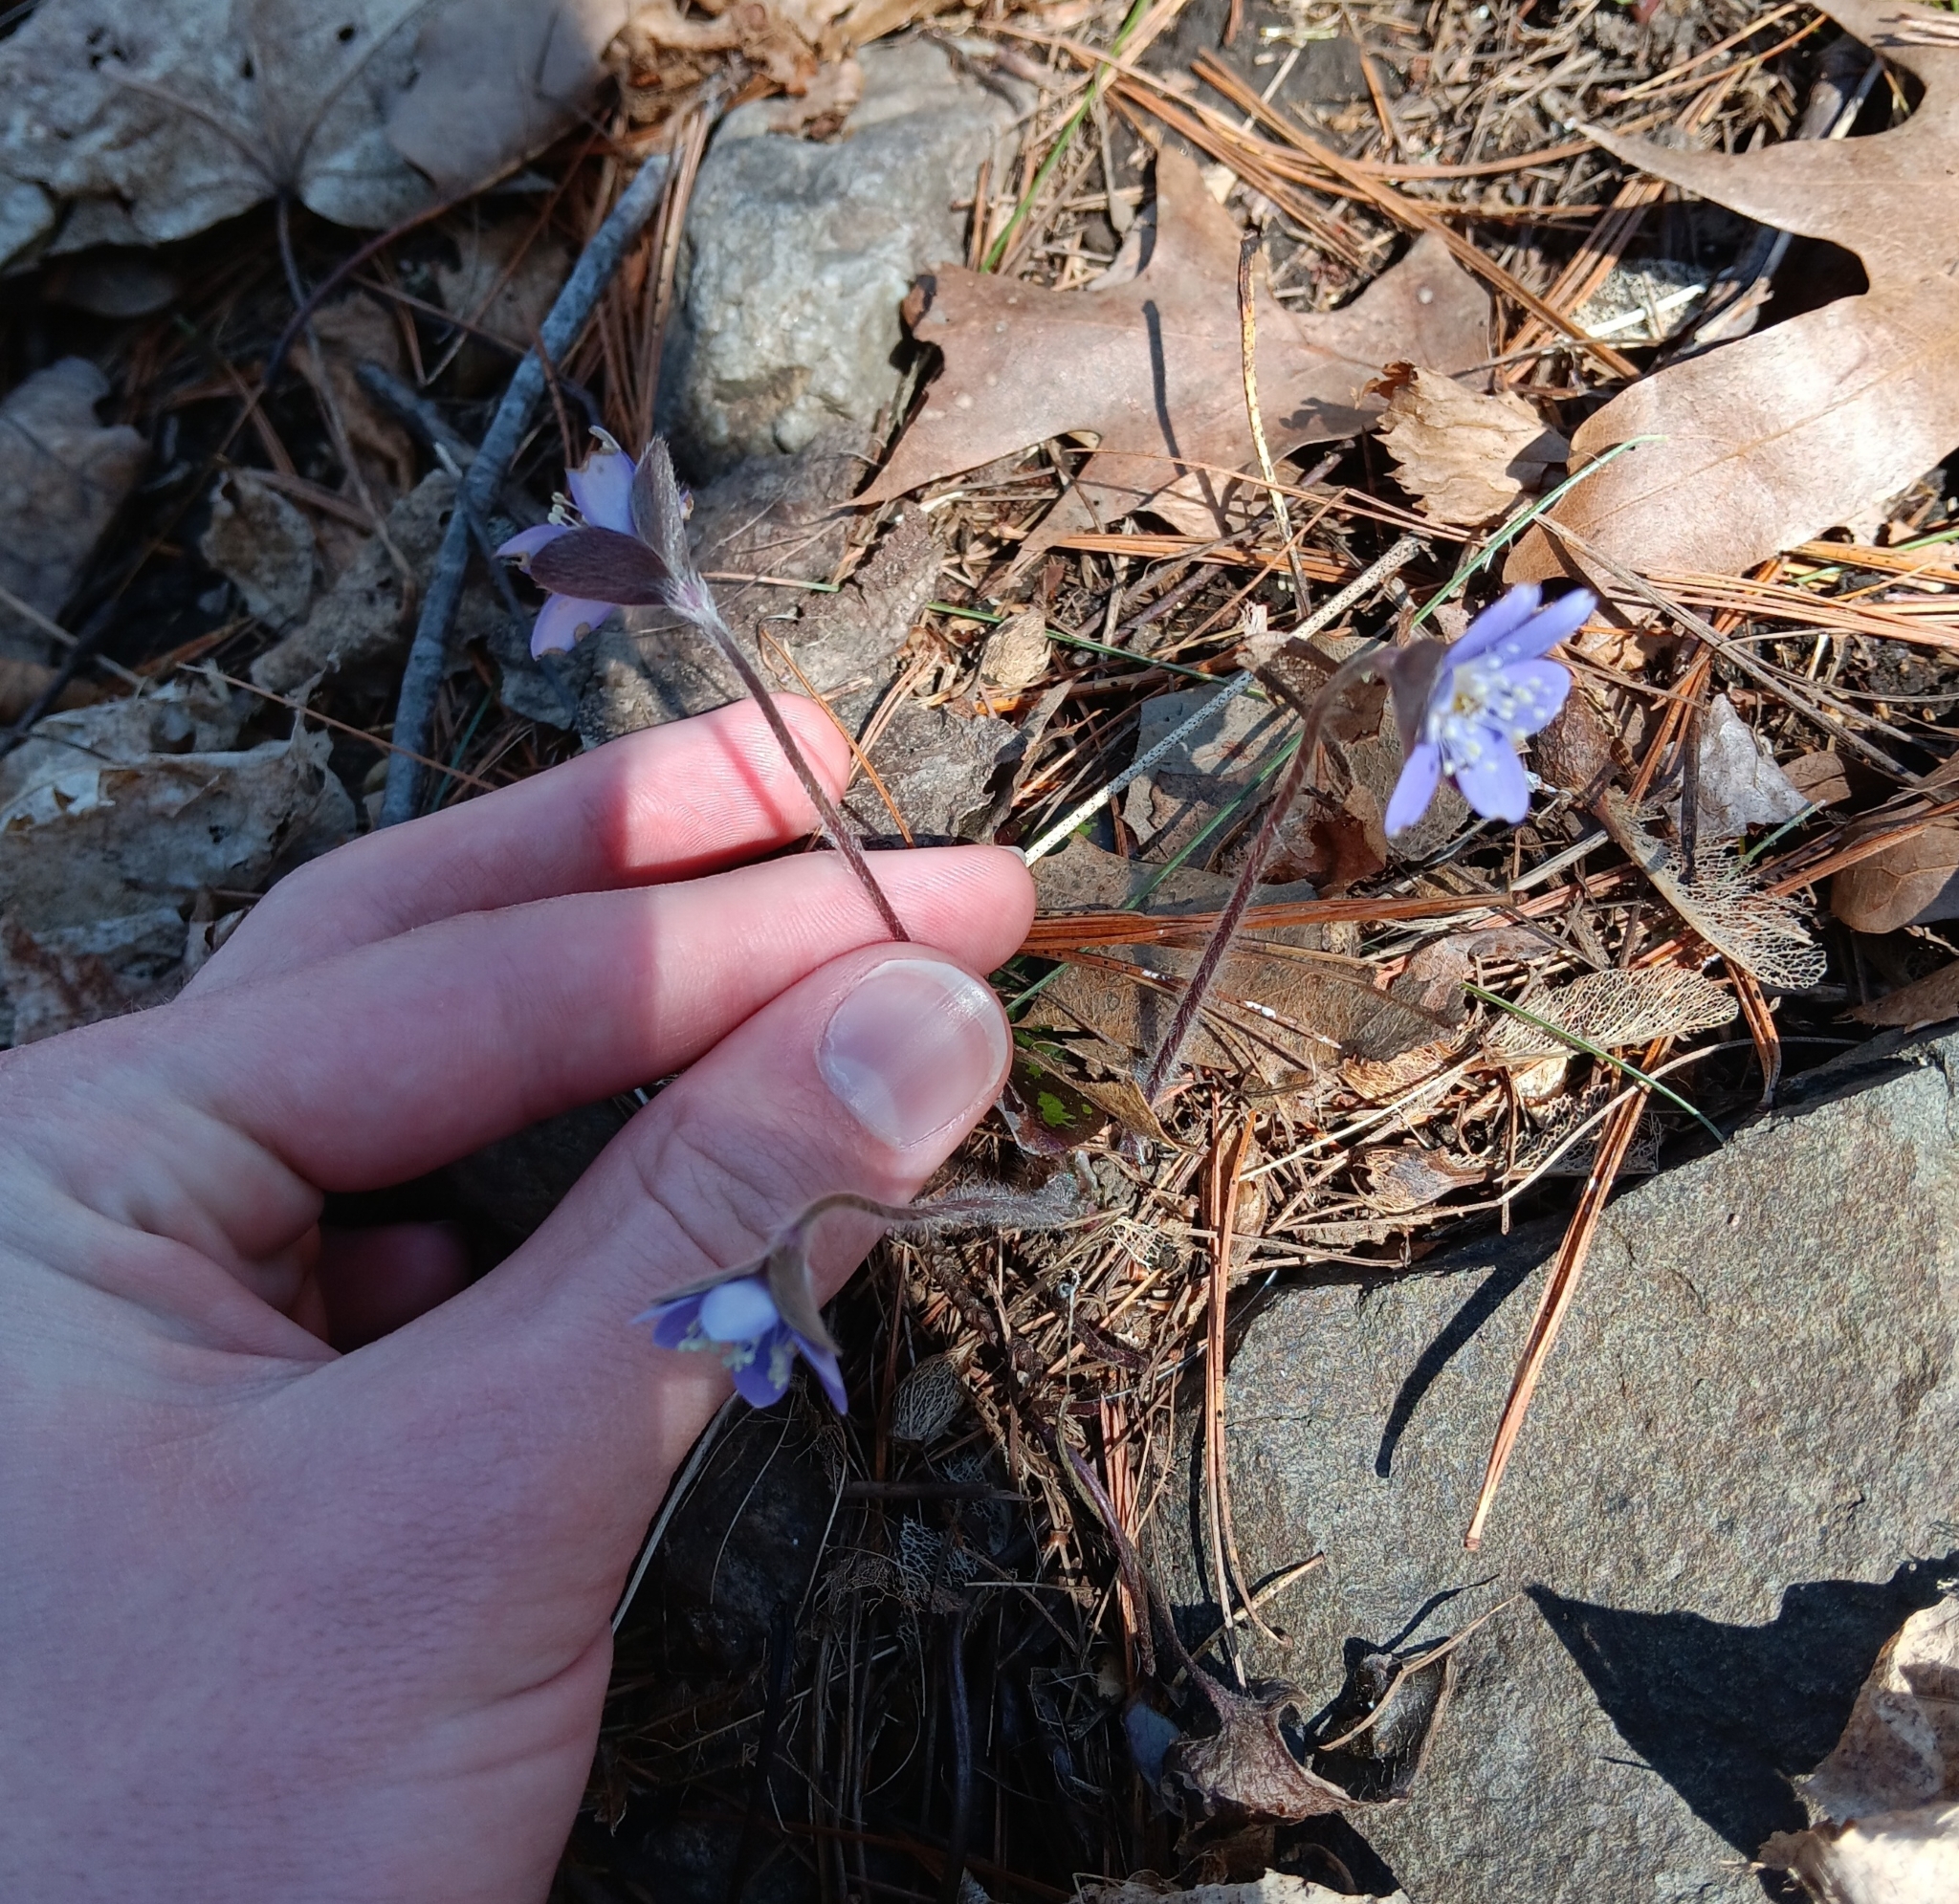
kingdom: Plantae
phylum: Tracheophyta
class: Magnoliopsida
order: Ranunculales
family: Ranunculaceae
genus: Hepatica
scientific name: Hepatica americana
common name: American hepatica
